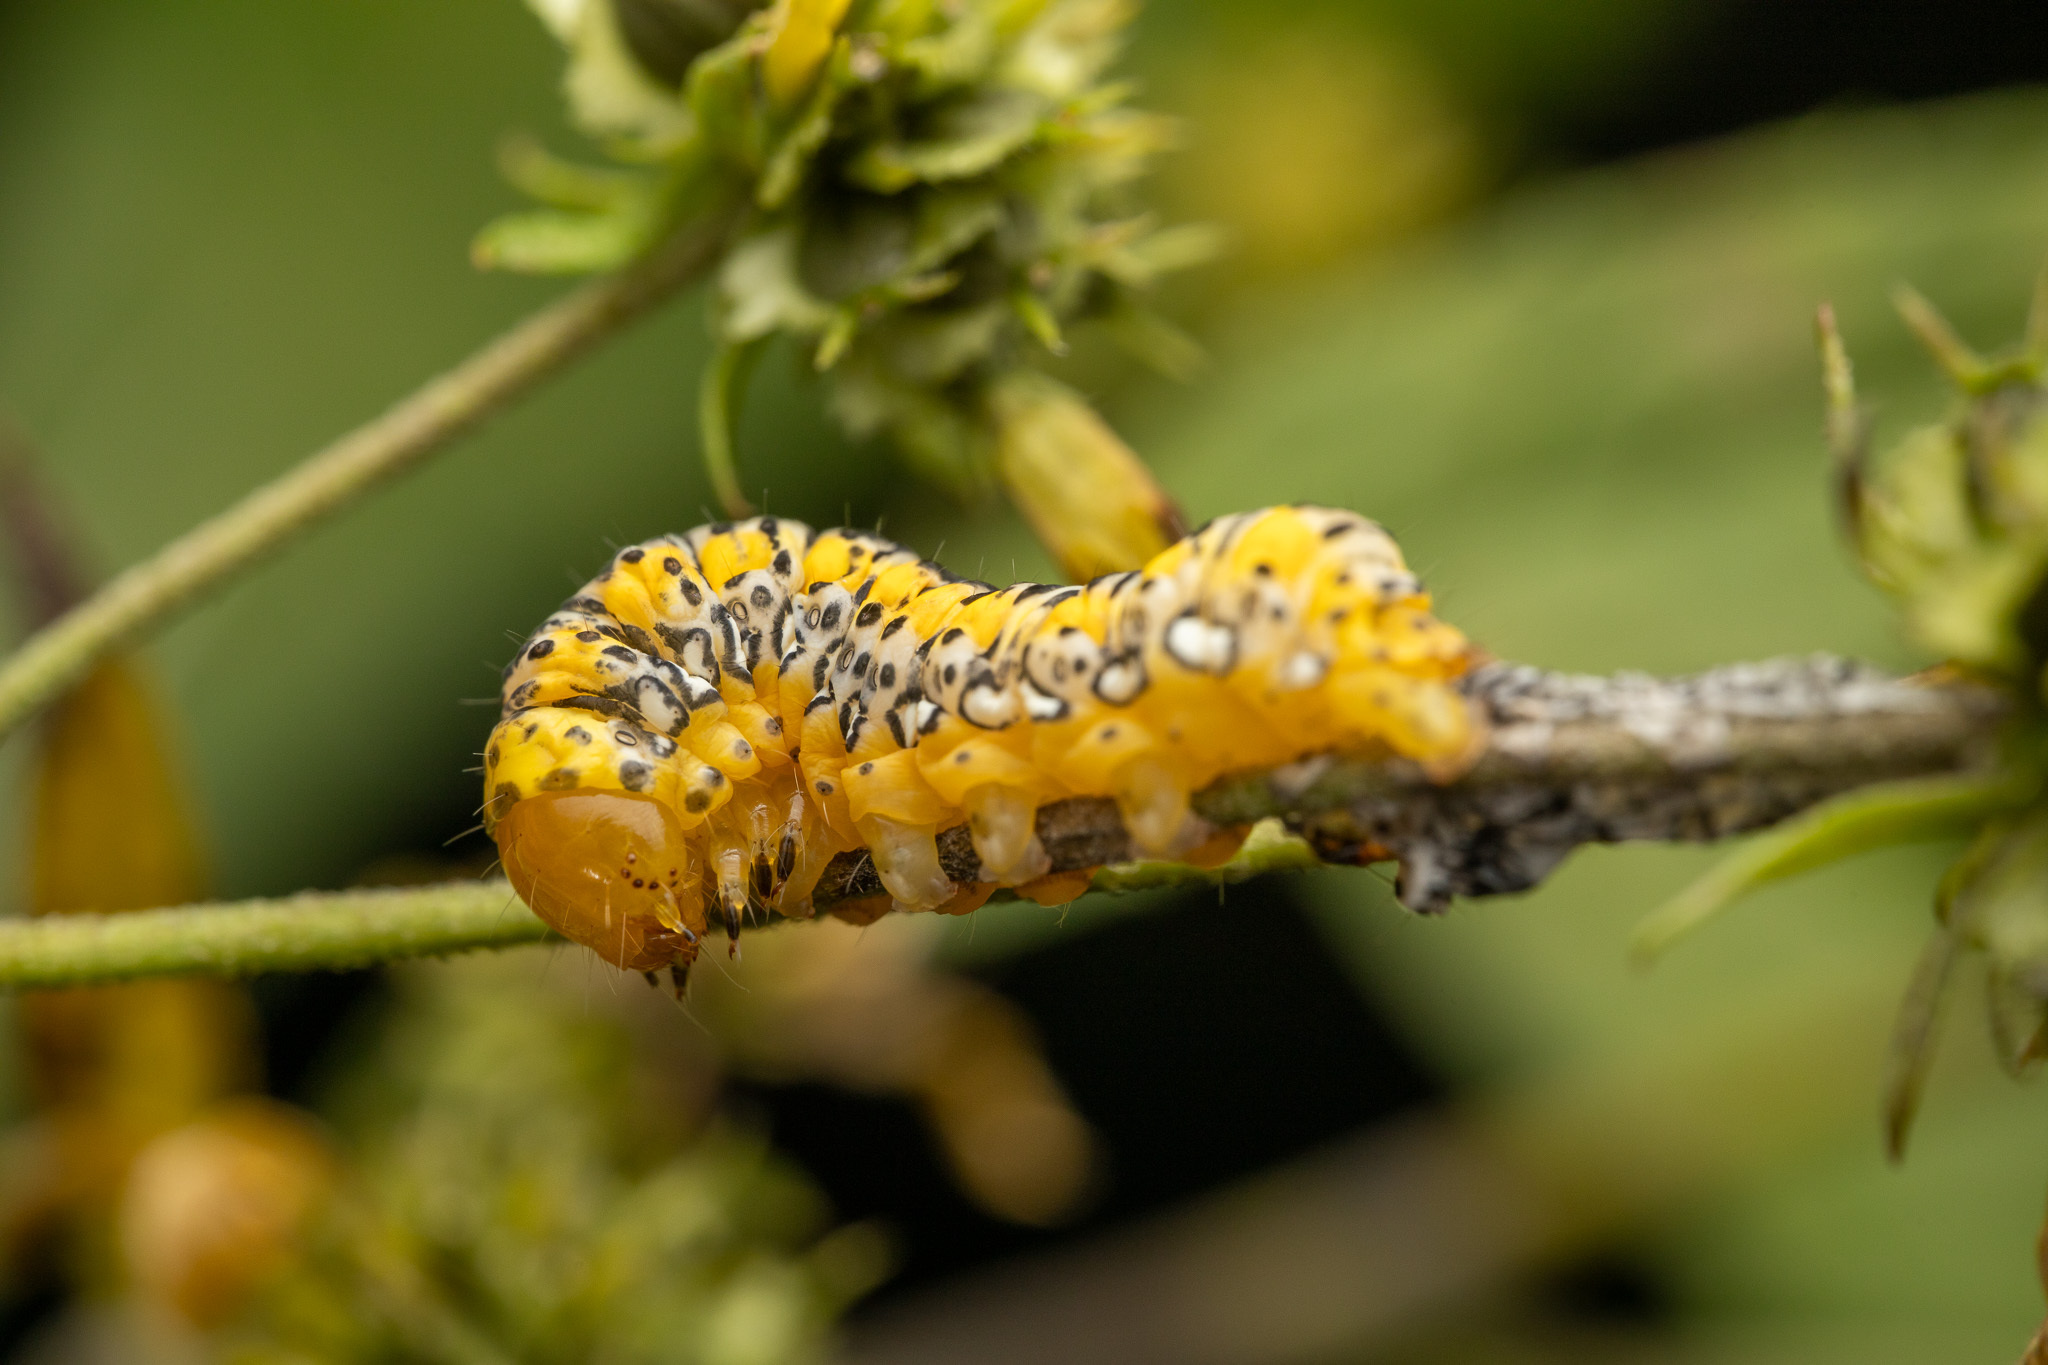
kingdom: Animalia
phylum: Arthropoda
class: Insecta
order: Lepidoptera
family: Noctuidae
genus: Basilodes
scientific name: Basilodes pepita
